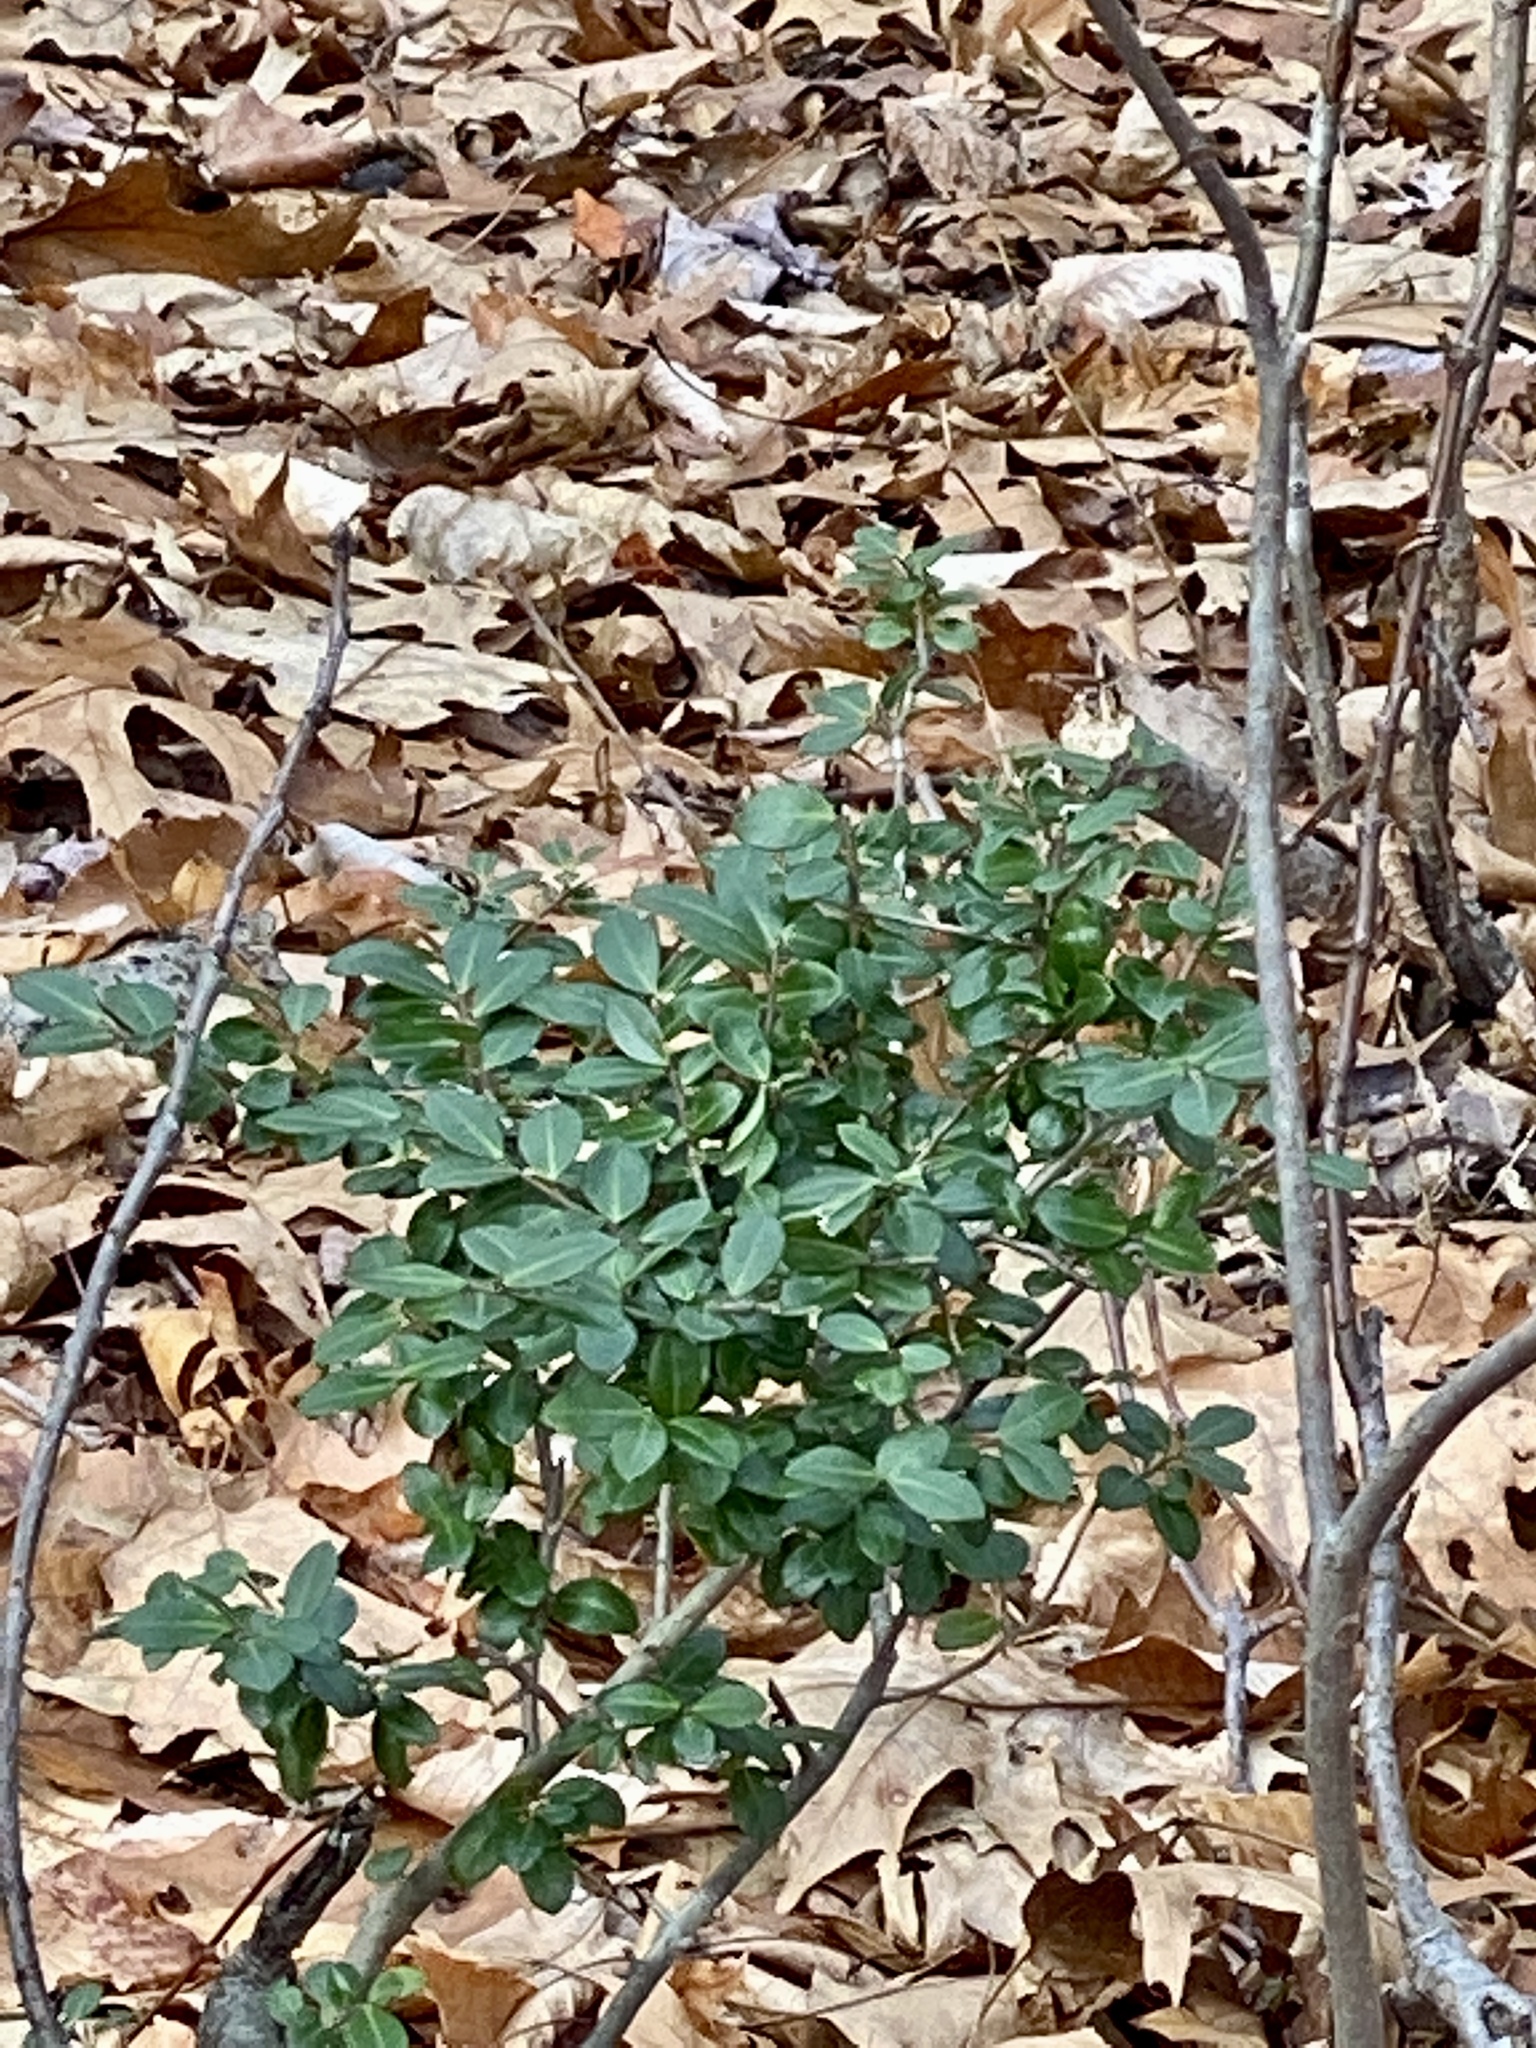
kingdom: Plantae
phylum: Tracheophyta
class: Magnoliopsida
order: Aquifoliales
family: Aquifoliaceae
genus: Ilex
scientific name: Ilex crenata
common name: Japanese holly
